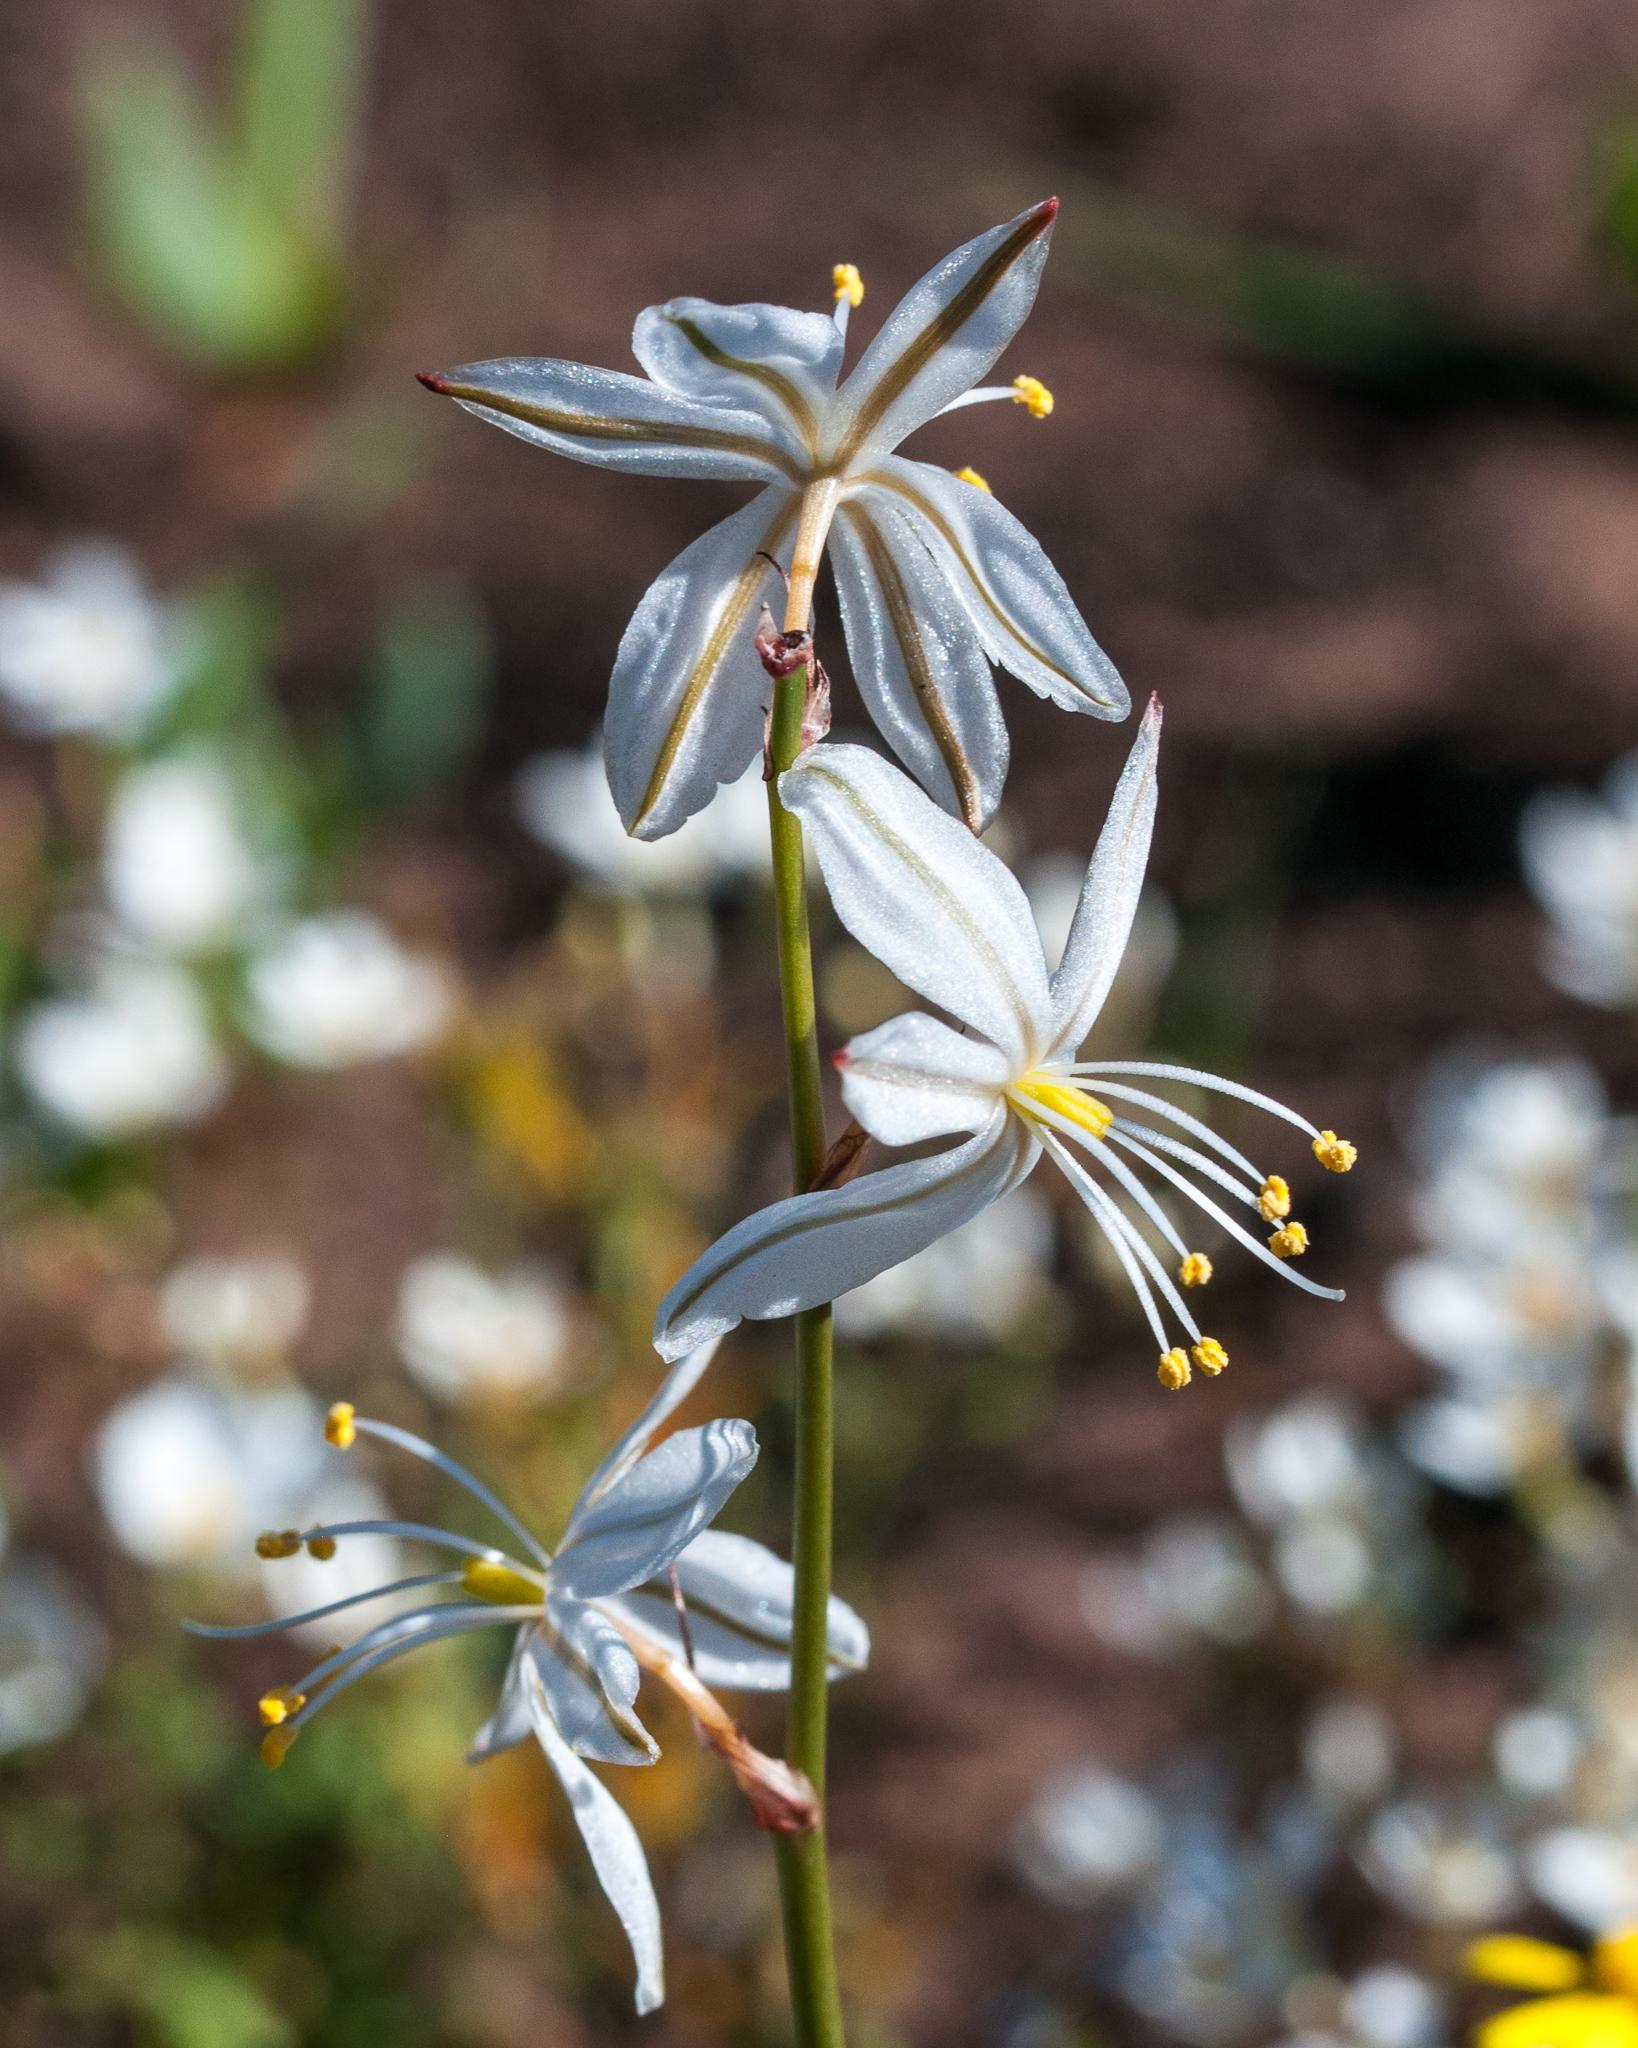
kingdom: Plantae
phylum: Tracheophyta
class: Liliopsida
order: Asparagales
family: Asparagaceae
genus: Chlorophytum
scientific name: Chlorophytum graminifolium
